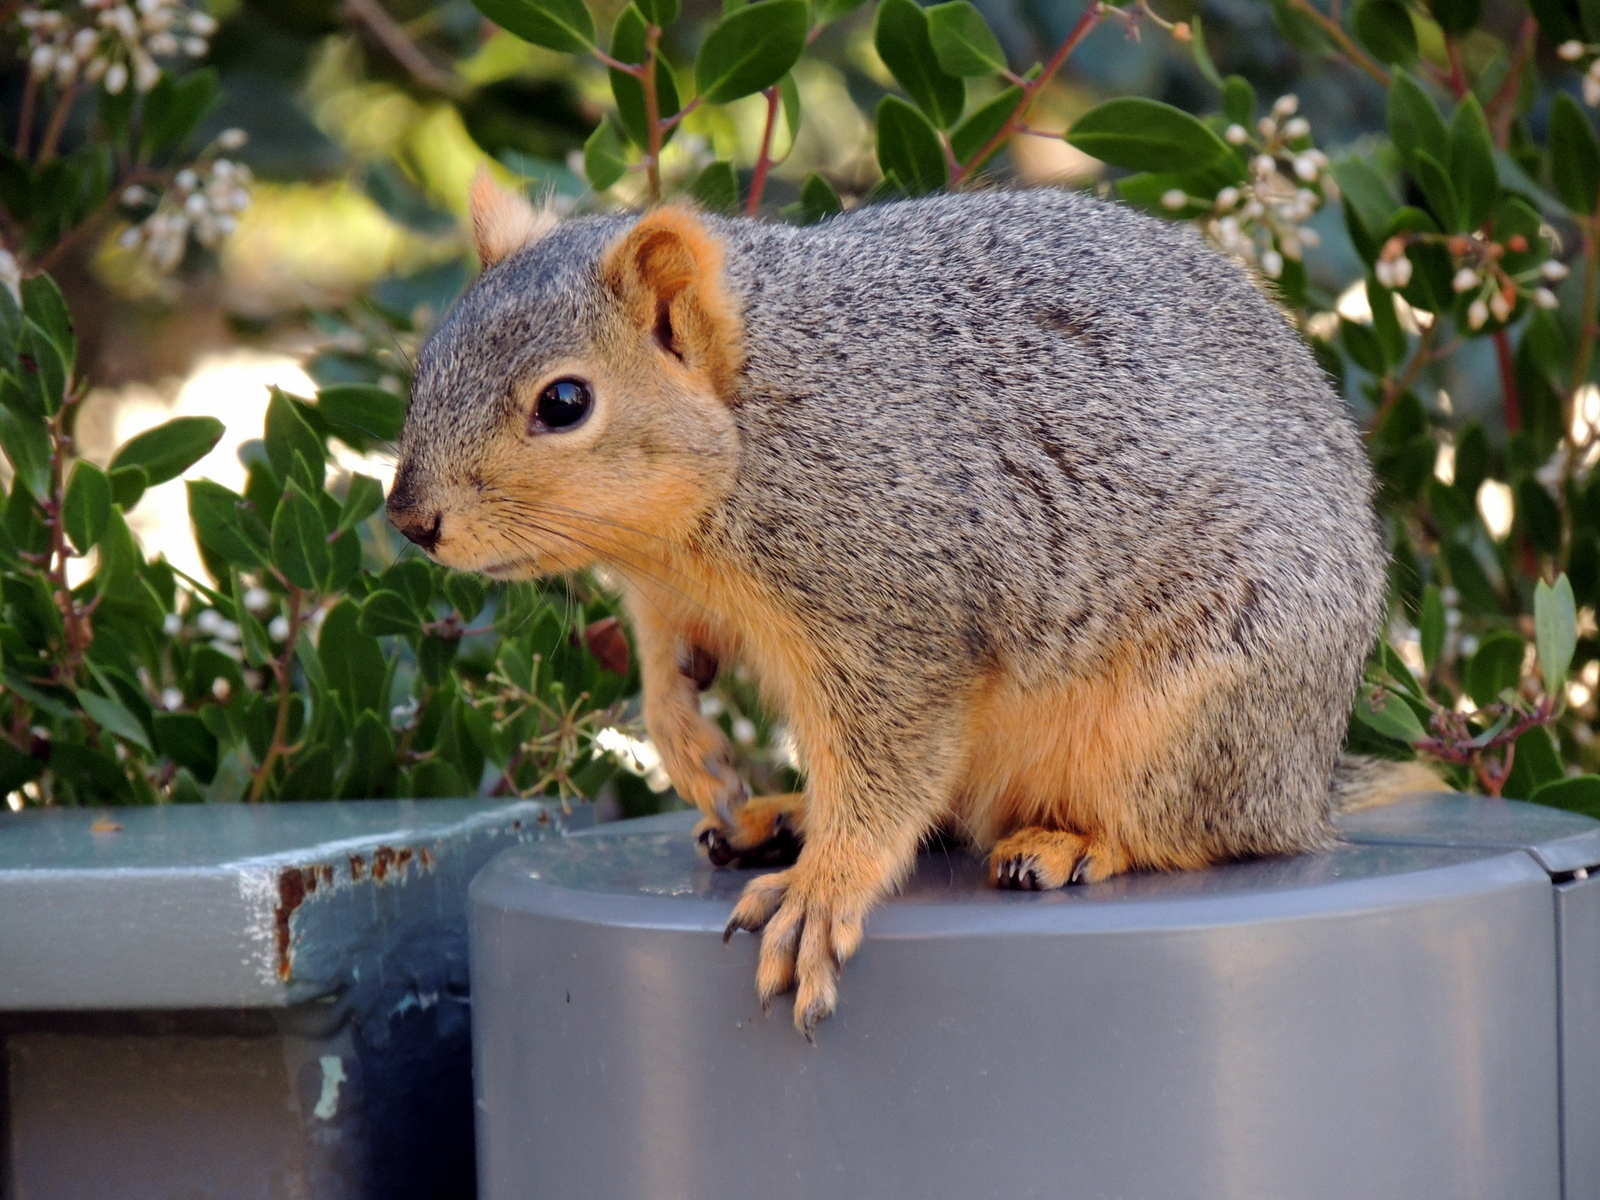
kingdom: Animalia
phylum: Chordata
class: Mammalia
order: Rodentia
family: Sciuridae
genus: Sciurus
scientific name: Sciurus niger
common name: Fox squirrel
